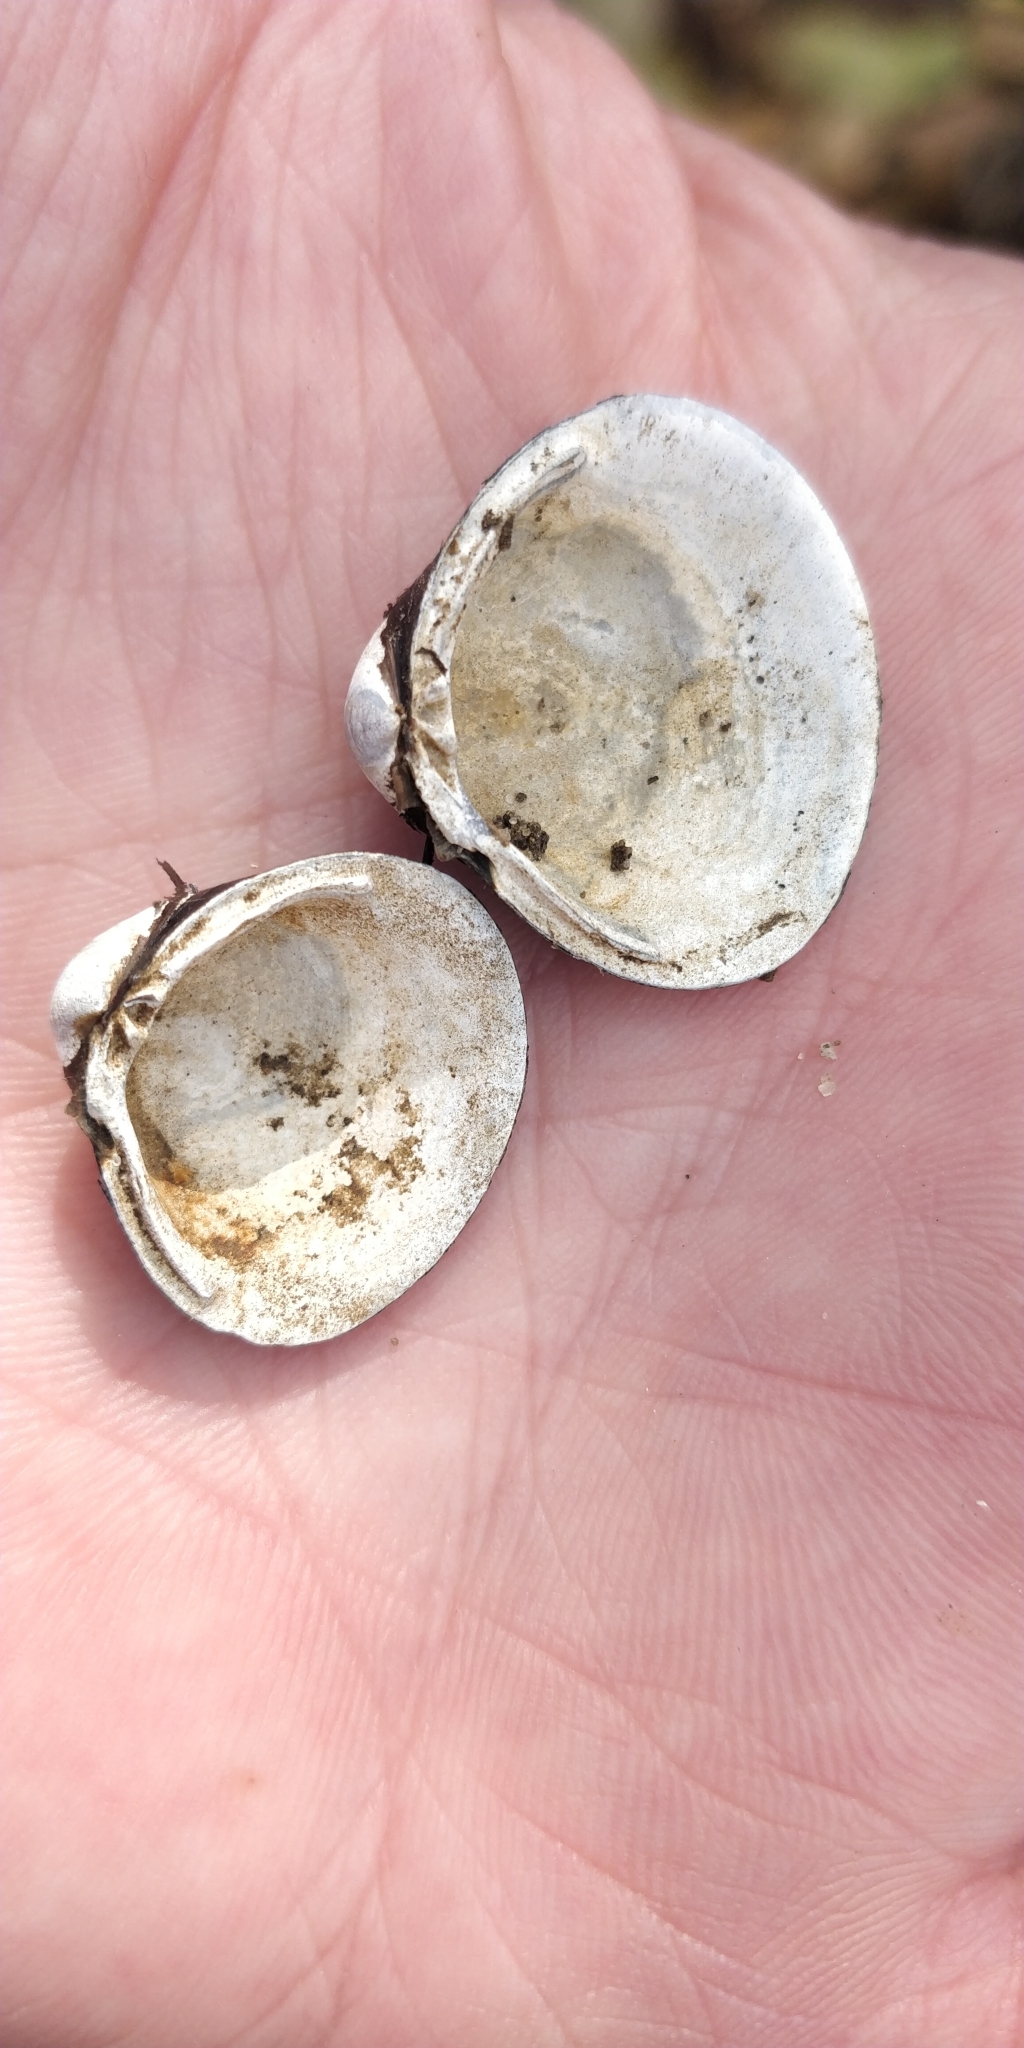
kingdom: Animalia
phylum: Mollusca
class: Bivalvia
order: Venerida
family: Cyrenidae
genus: Corbicula
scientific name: Corbicula fluminea
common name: Asian clam
